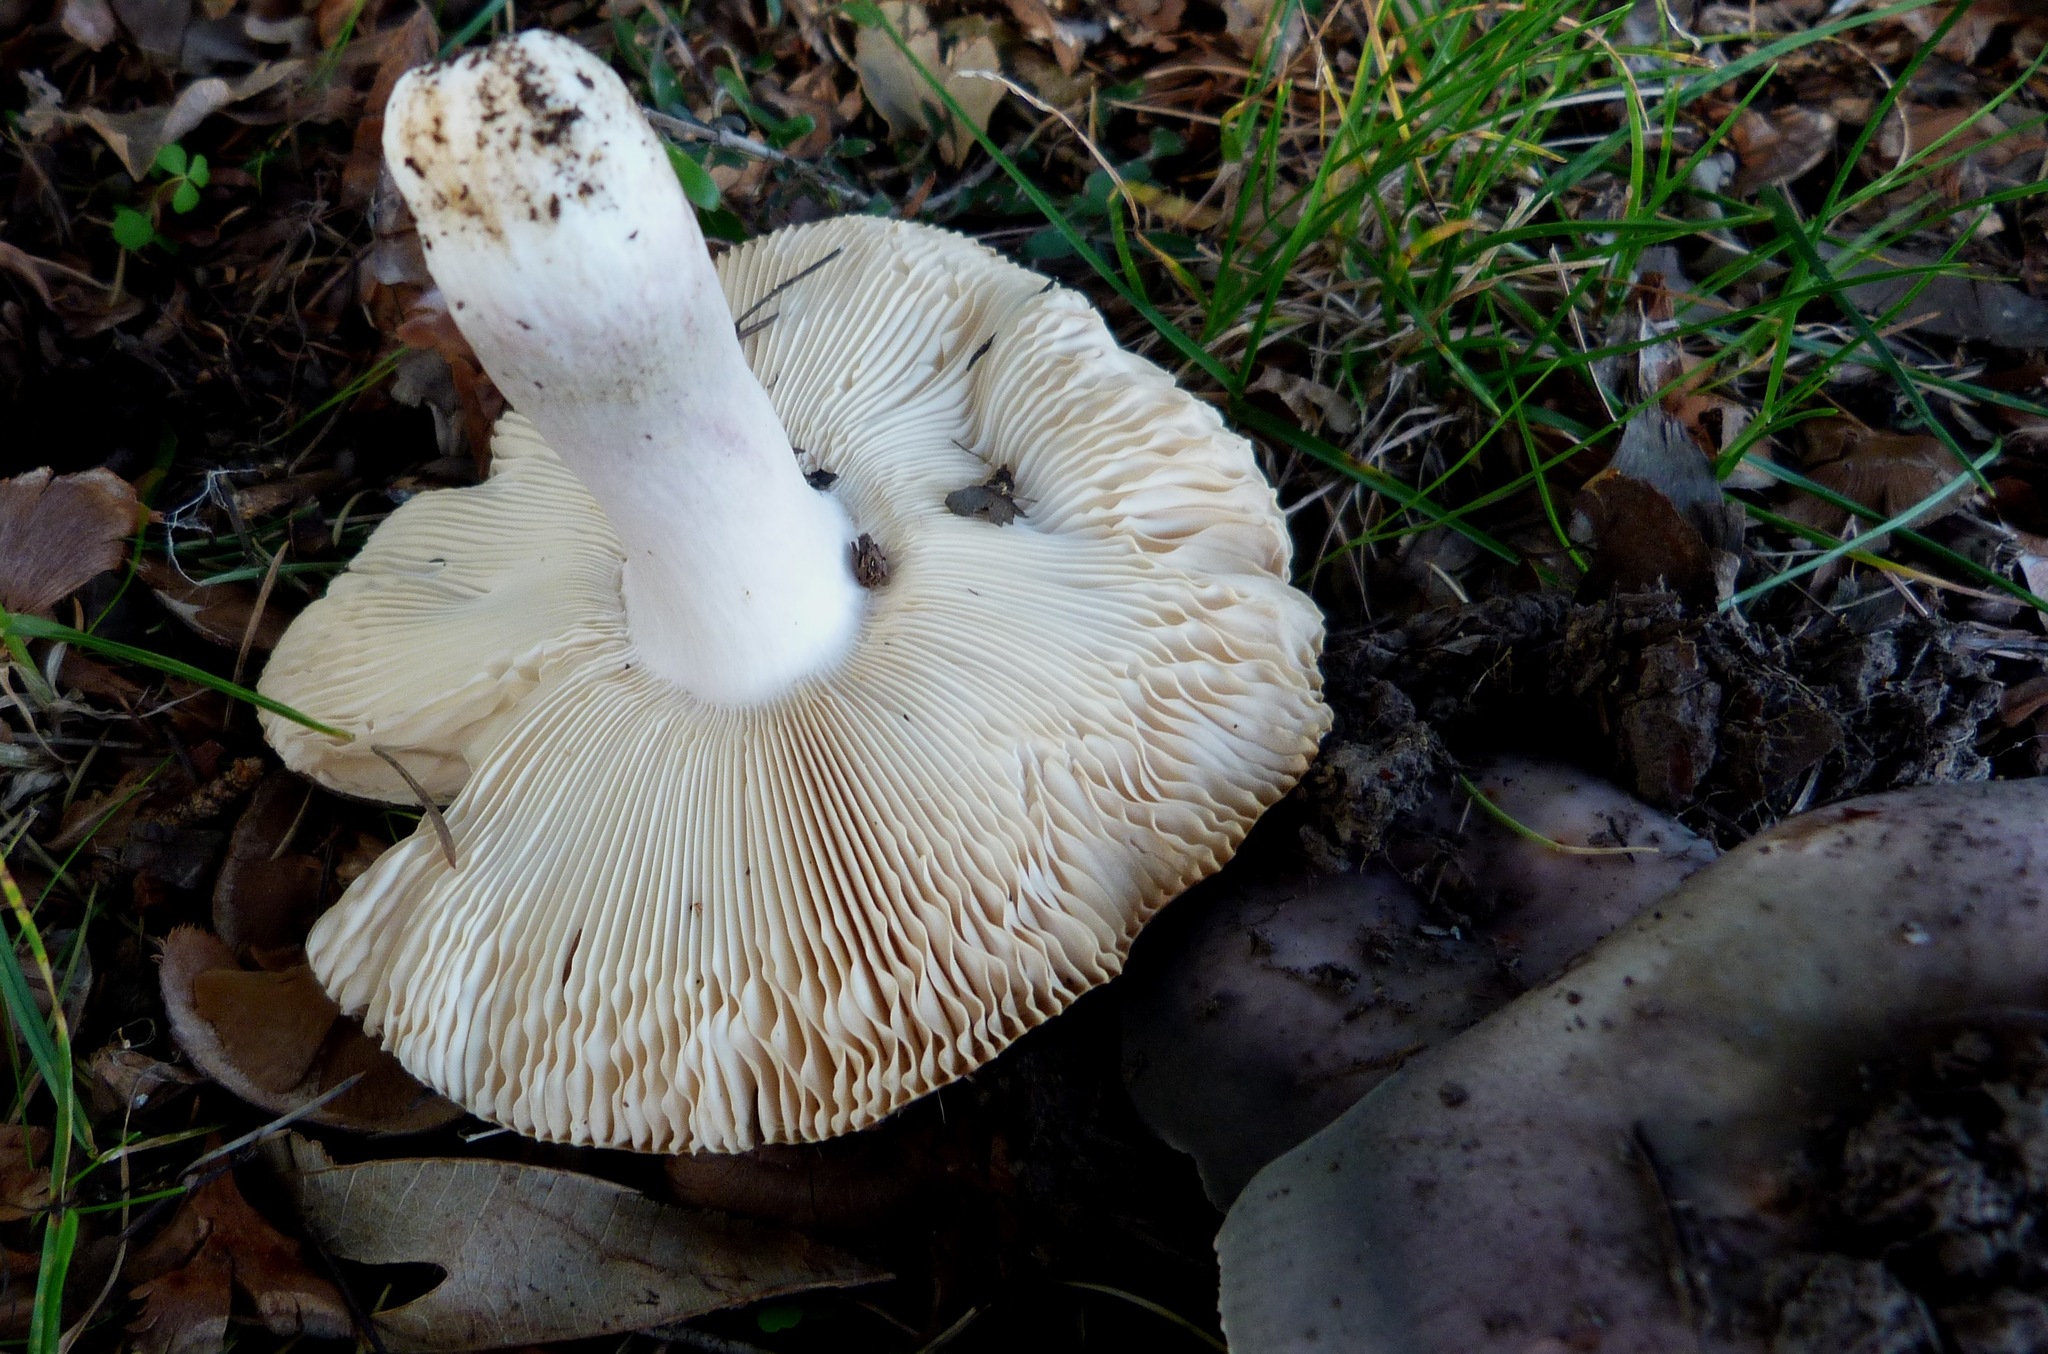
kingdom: Fungi
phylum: Basidiomycota
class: Agaricomycetes
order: Russulales
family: Russulaceae
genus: Russula
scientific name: Russula grisea
